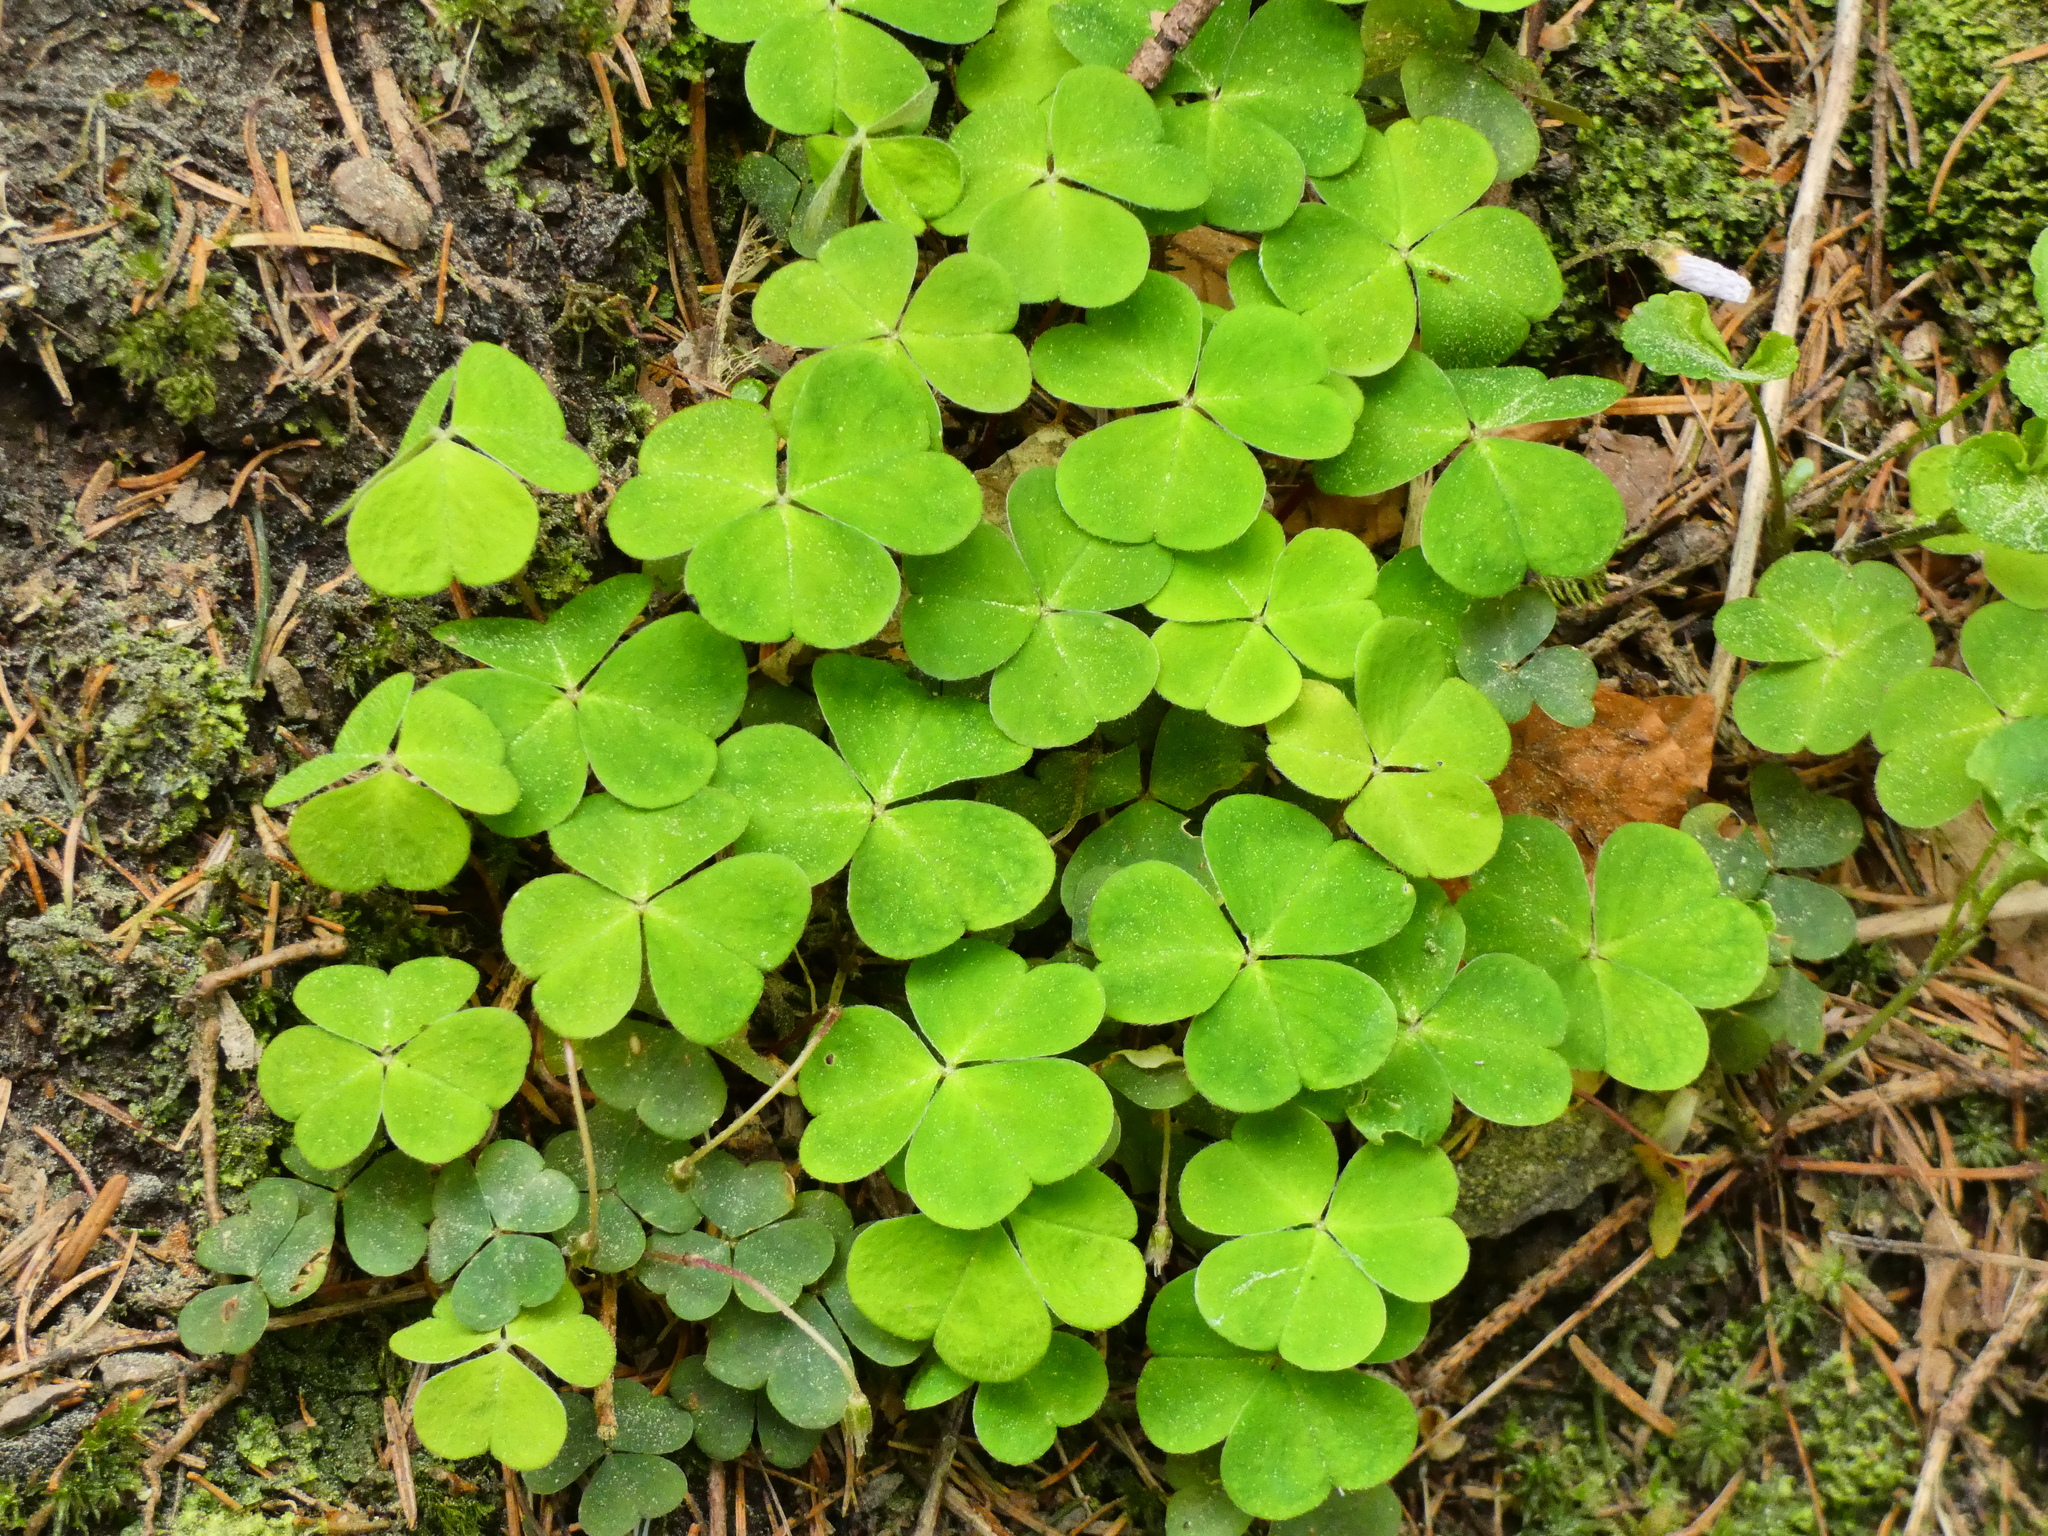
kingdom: Plantae
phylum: Tracheophyta
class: Magnoliopsida
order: Oxalidales
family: Oxalidaceae
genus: Oxalis
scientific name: Oxalis acetosella
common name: Wood-sorrel
